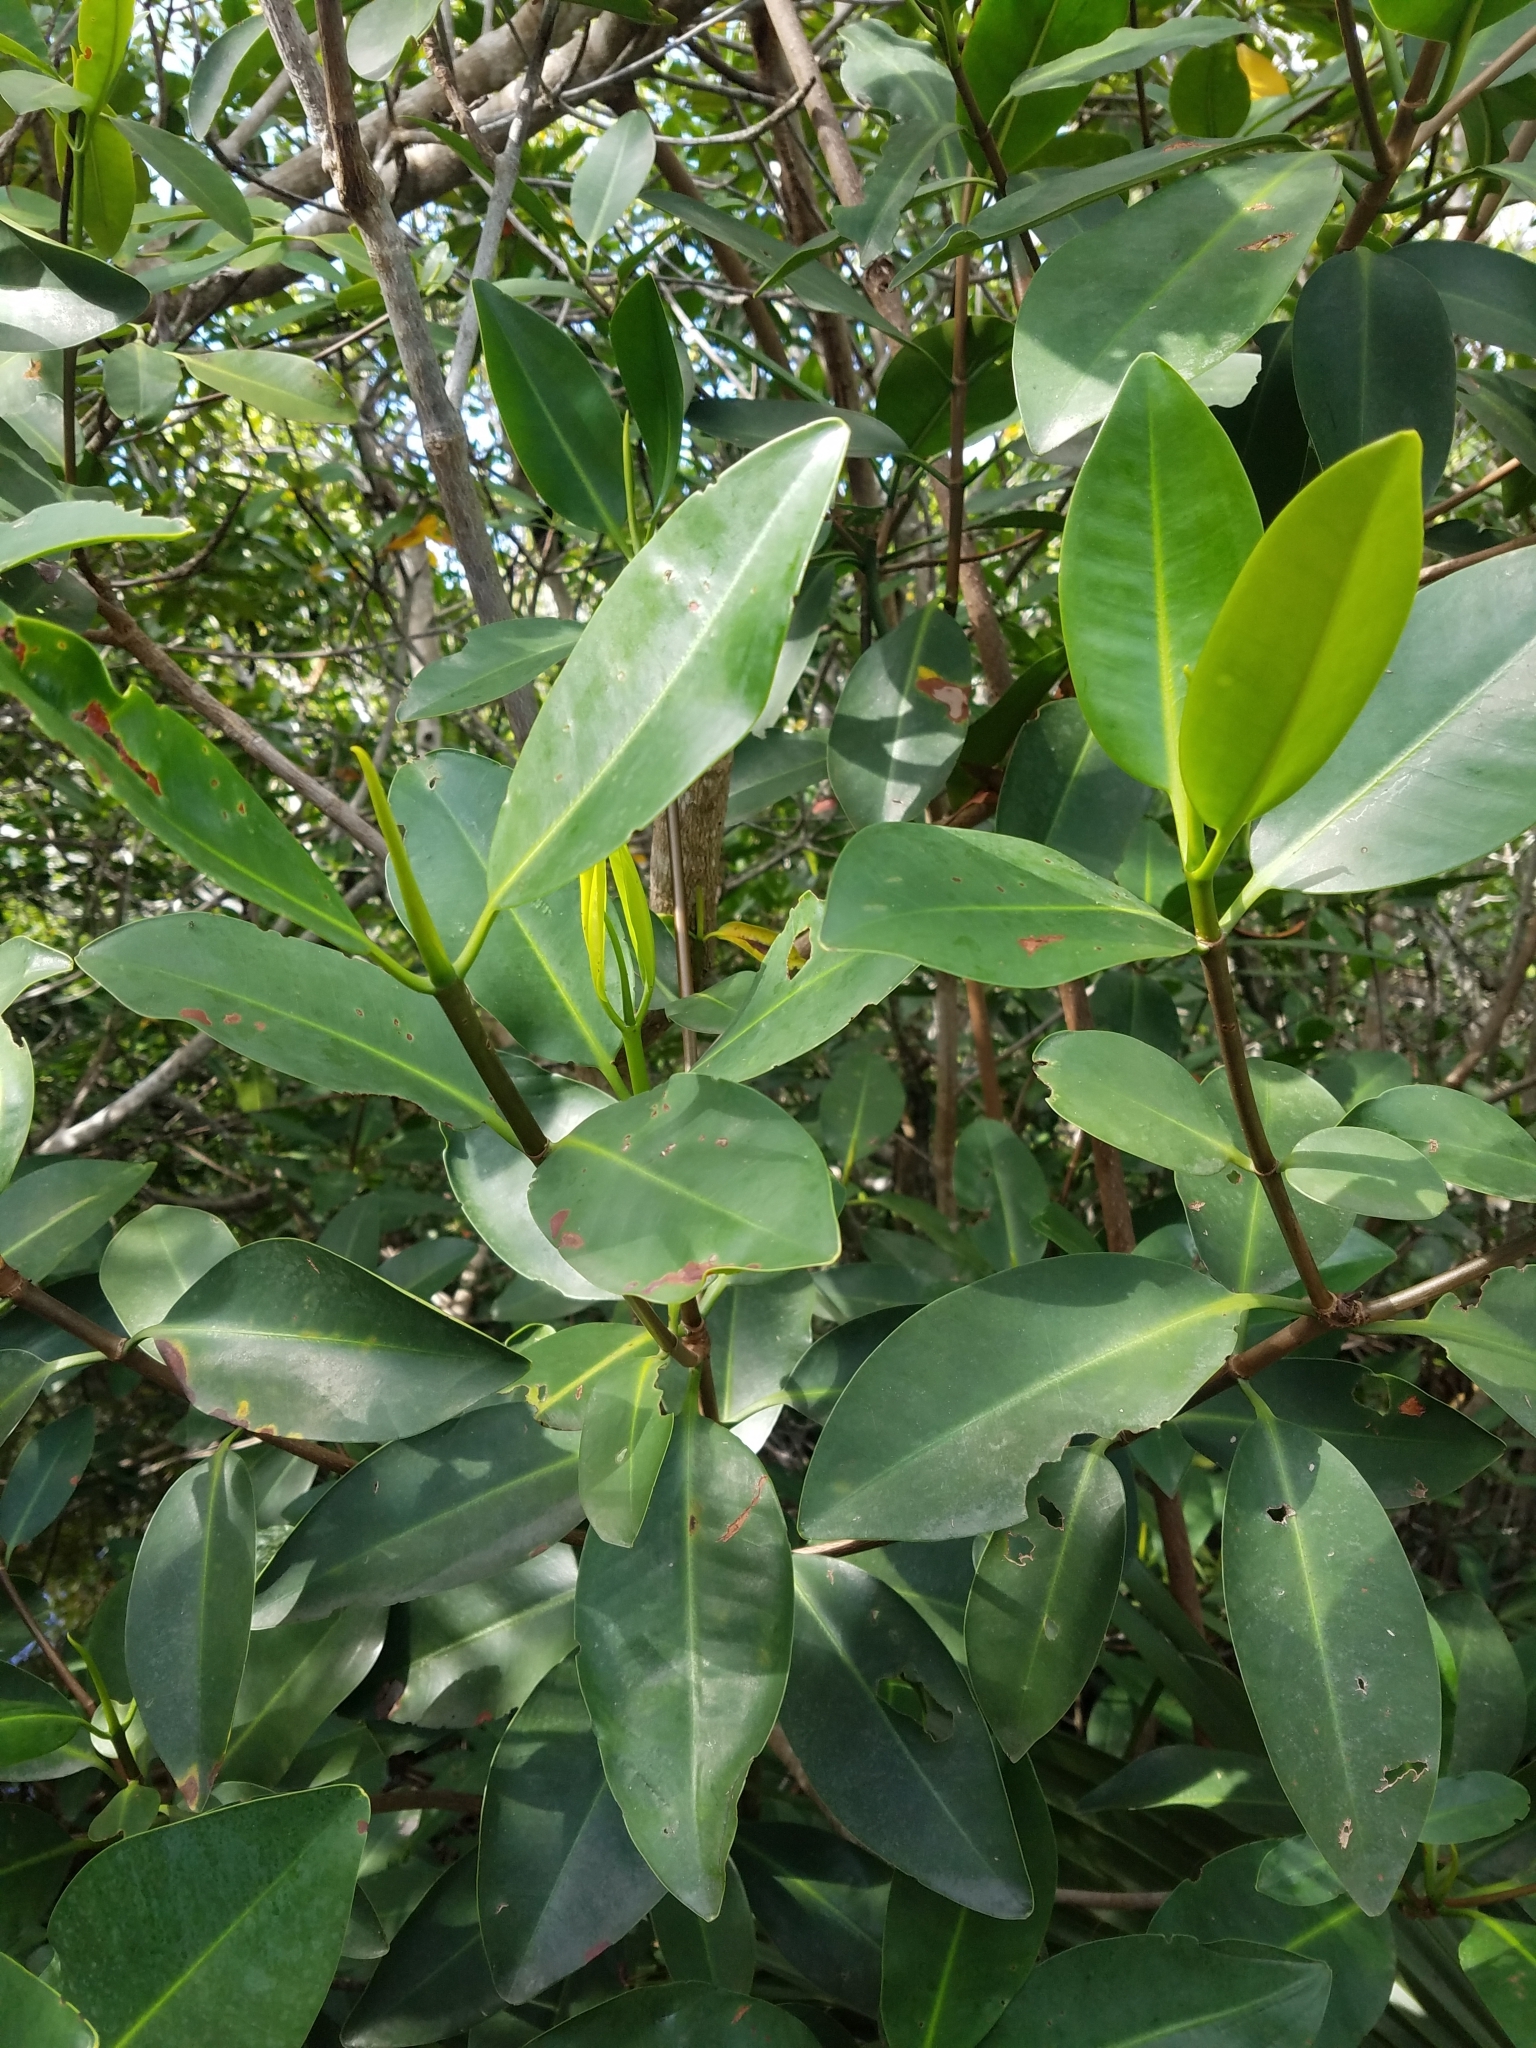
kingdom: Plantae
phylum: Tracheophyta
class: Magnoliopsida
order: Malpighiales
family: Rhizophoraceae
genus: Rhizophora
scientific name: Rhizophora mangle
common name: Red mangrove
